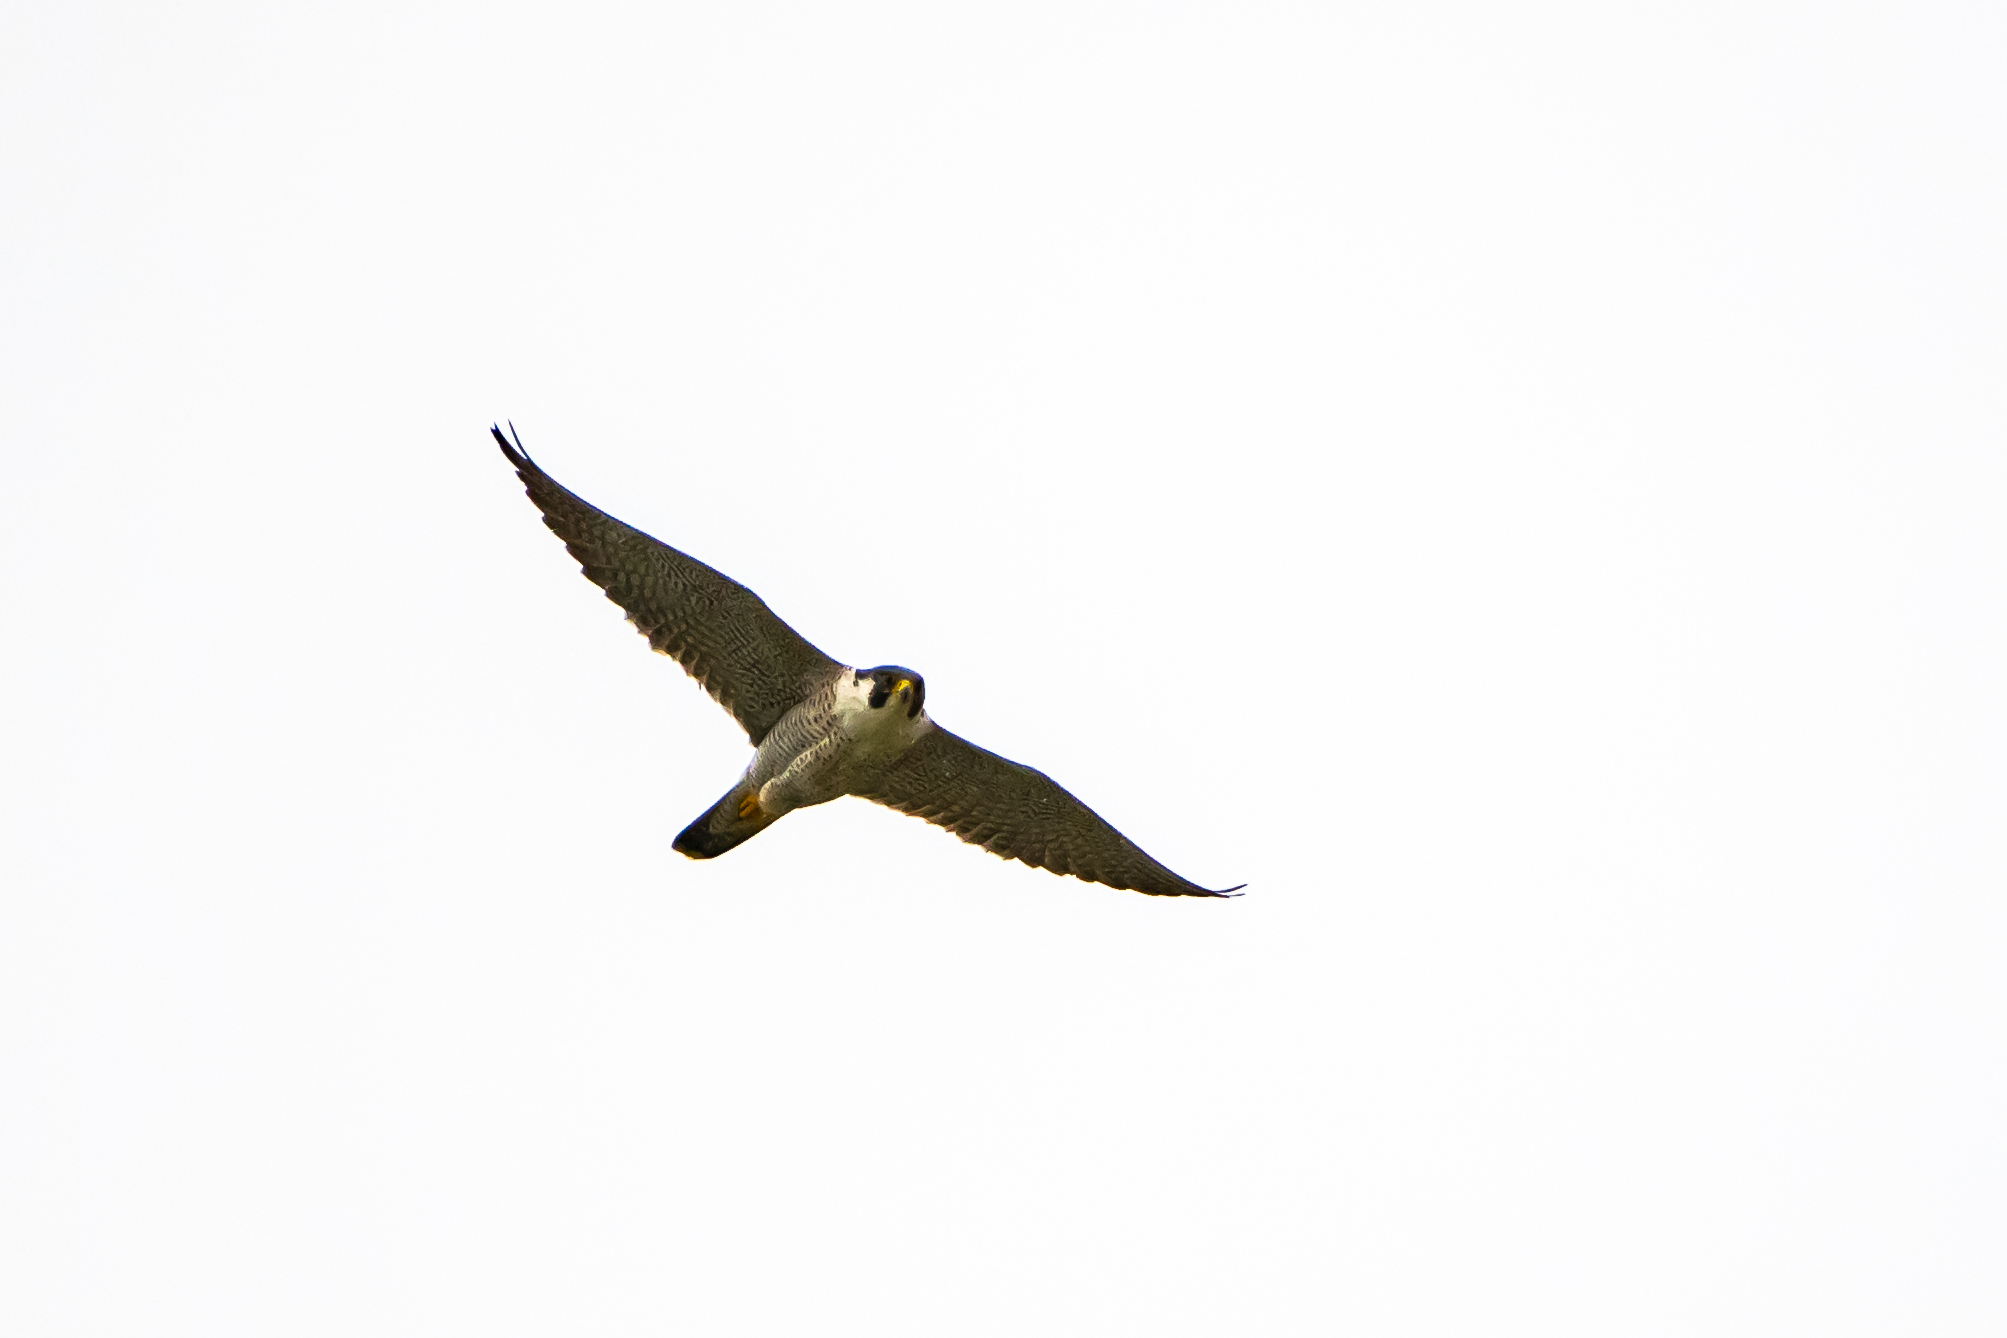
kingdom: Animalia
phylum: Chordata
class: Aves
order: Falconiformes
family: Falconidae
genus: Falco
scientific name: Falco peregrinus
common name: Peregrine falcon
